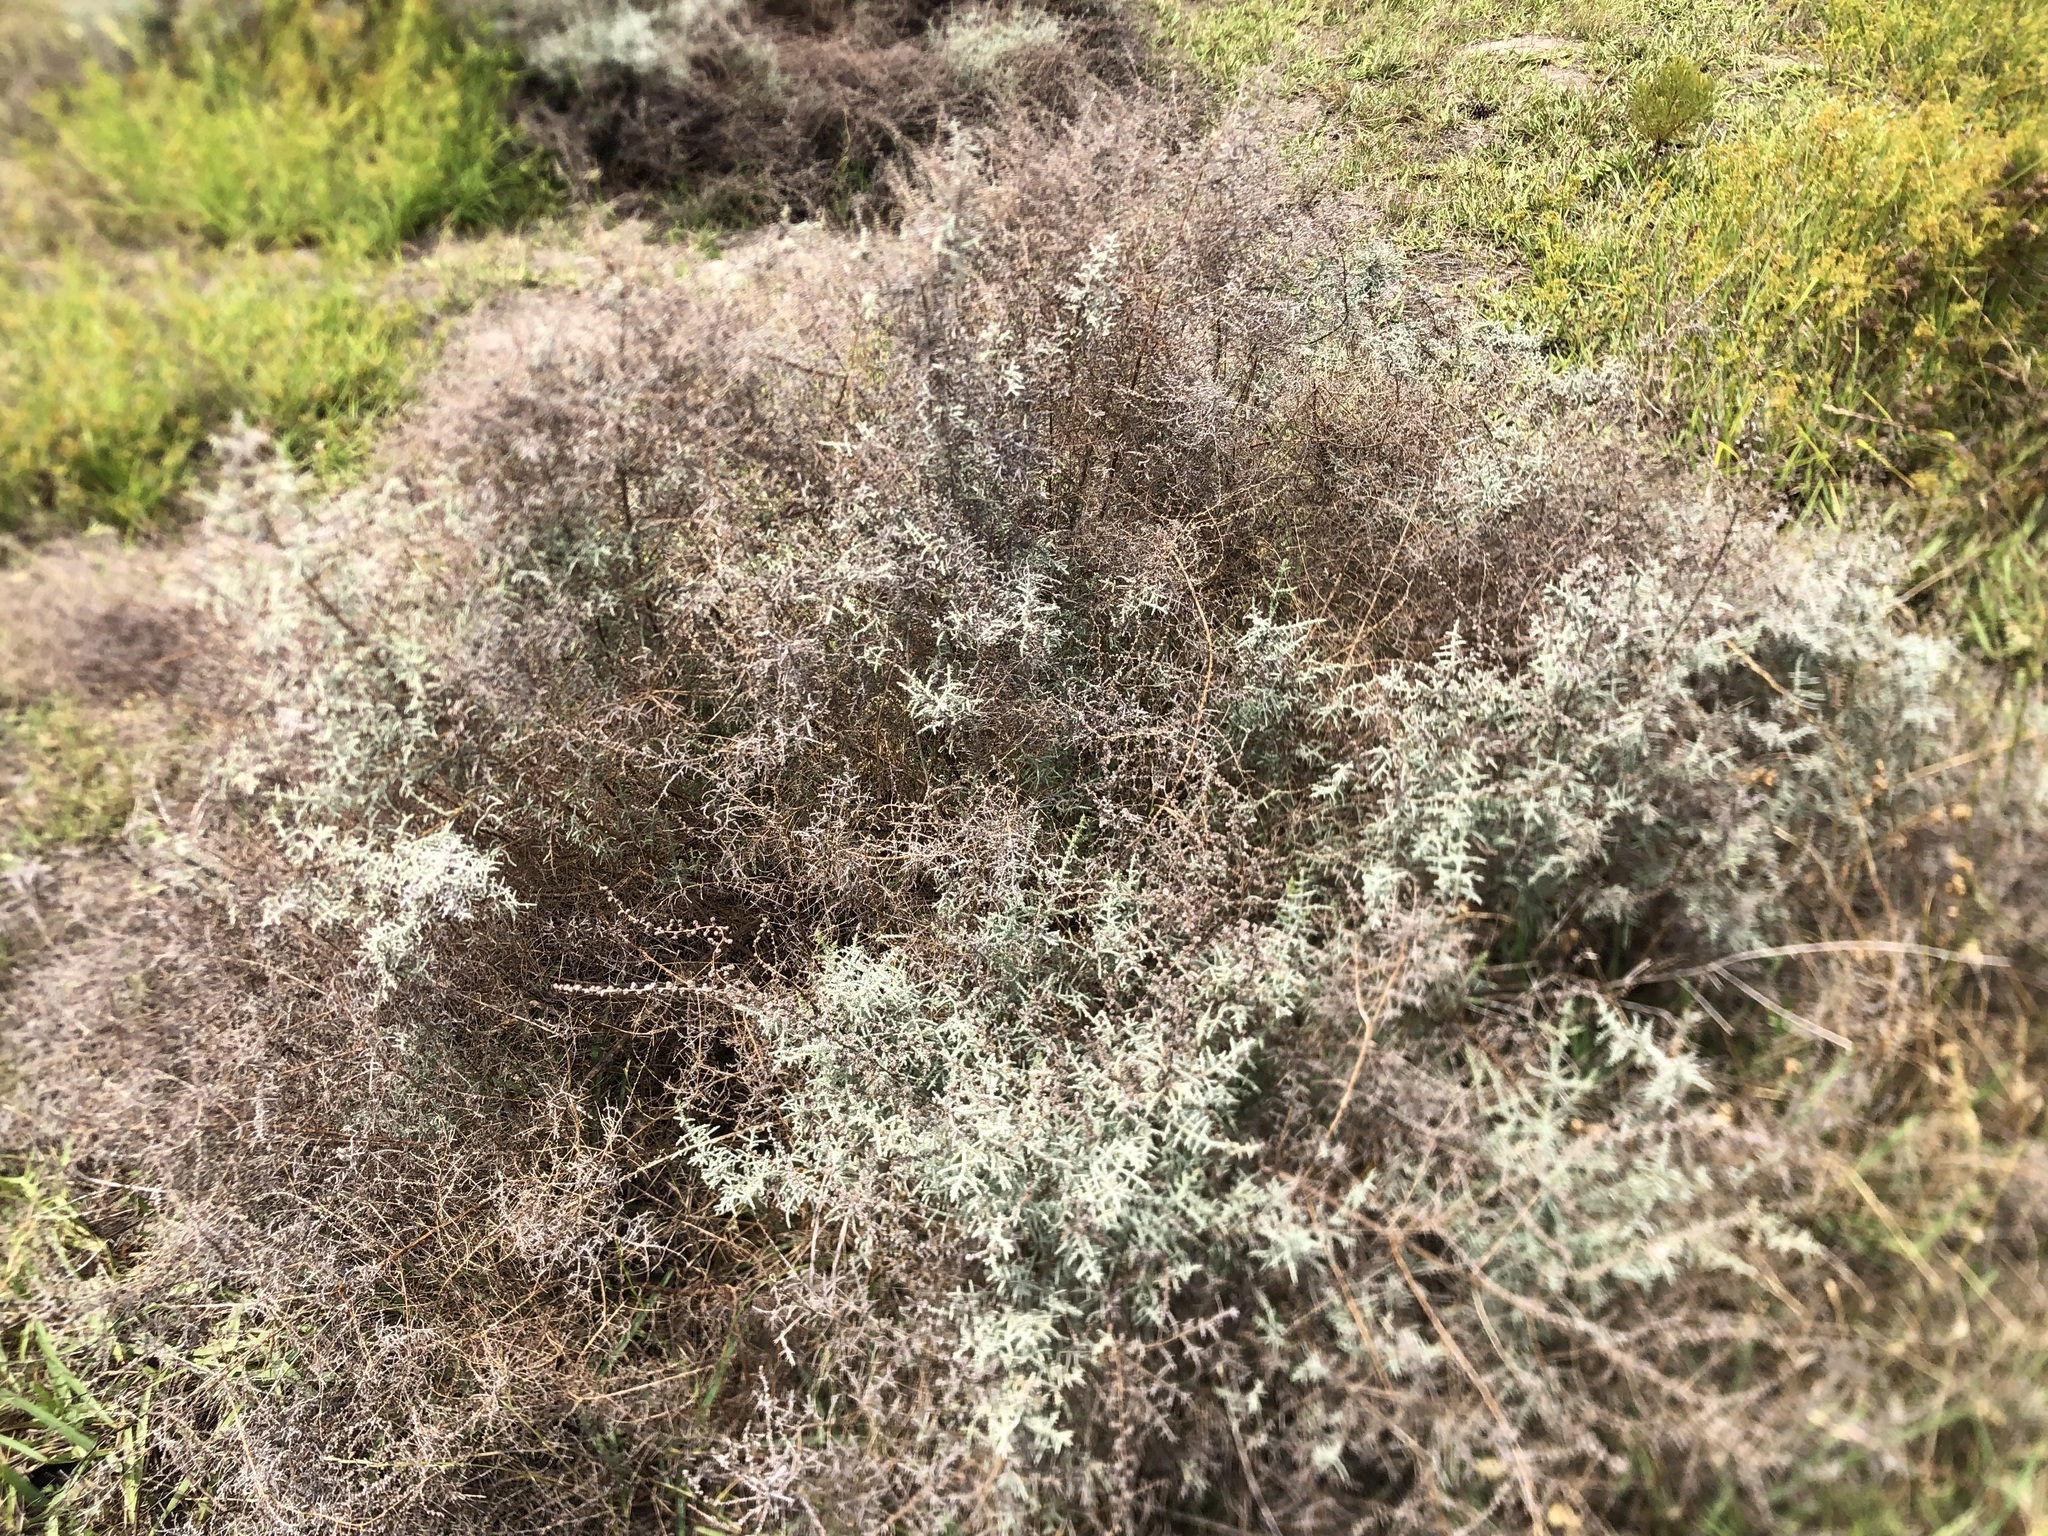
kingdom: Plantae
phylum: Tracheophyta
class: Magnoliopsida
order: Asterales
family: Asteraceae
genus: Seriphium
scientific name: Seriphium plumosum
